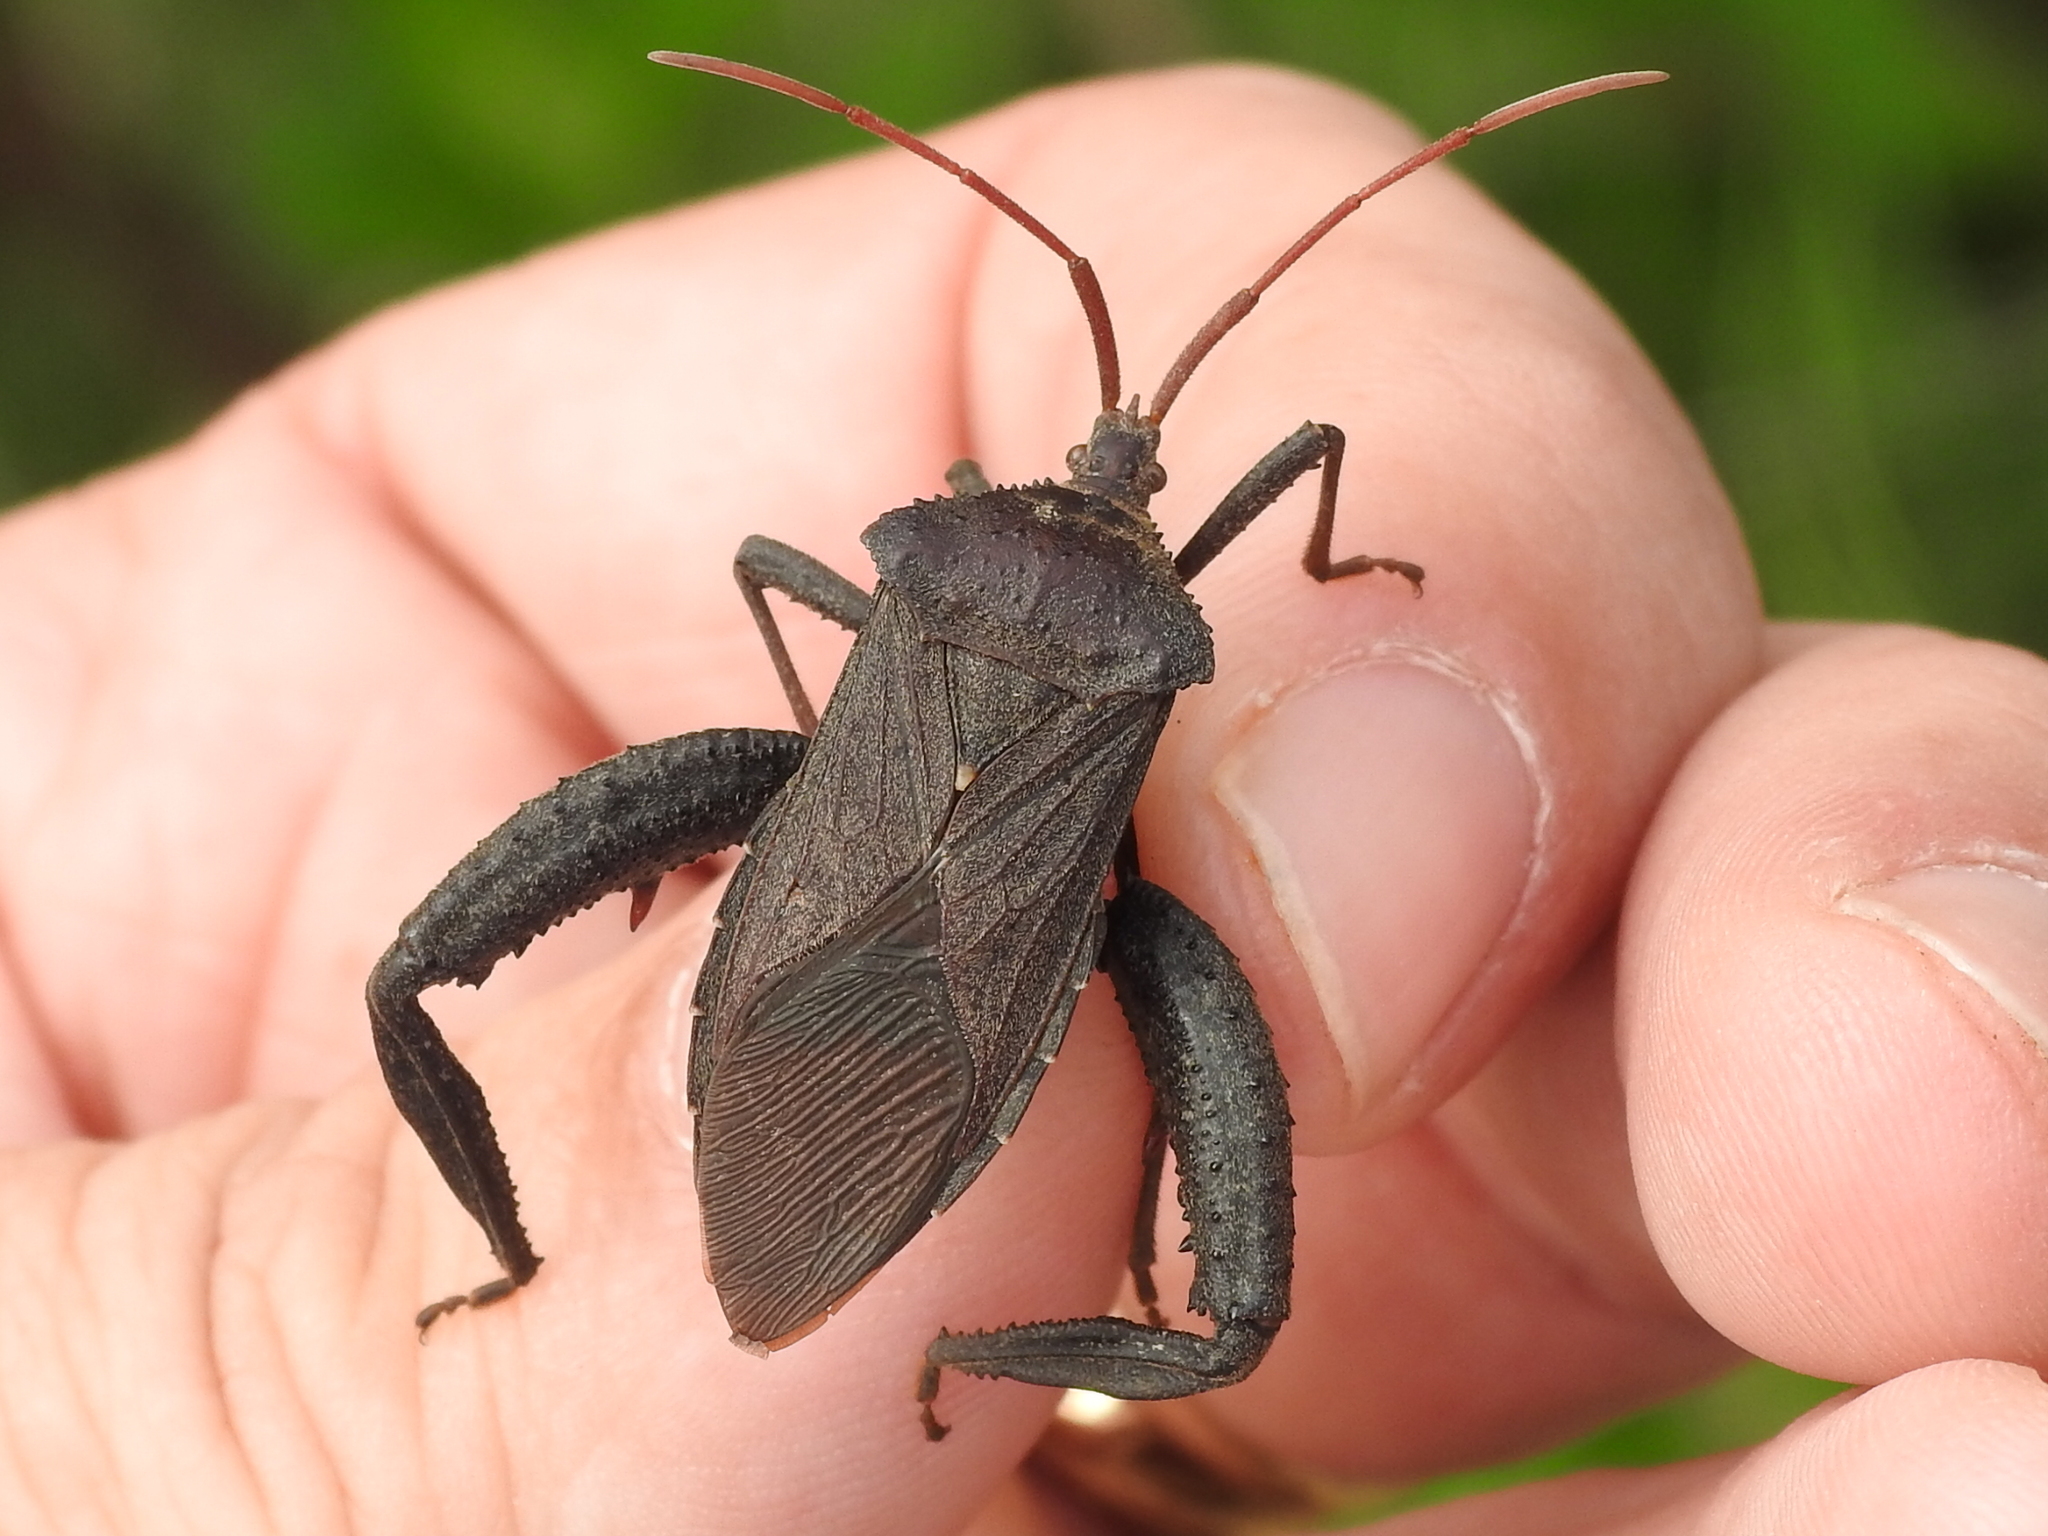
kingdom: Animalia
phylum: Arthropoda
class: Insecta
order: Hemiptera
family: Coreidae
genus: Acanthocephala
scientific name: Acanthocephala femorata
